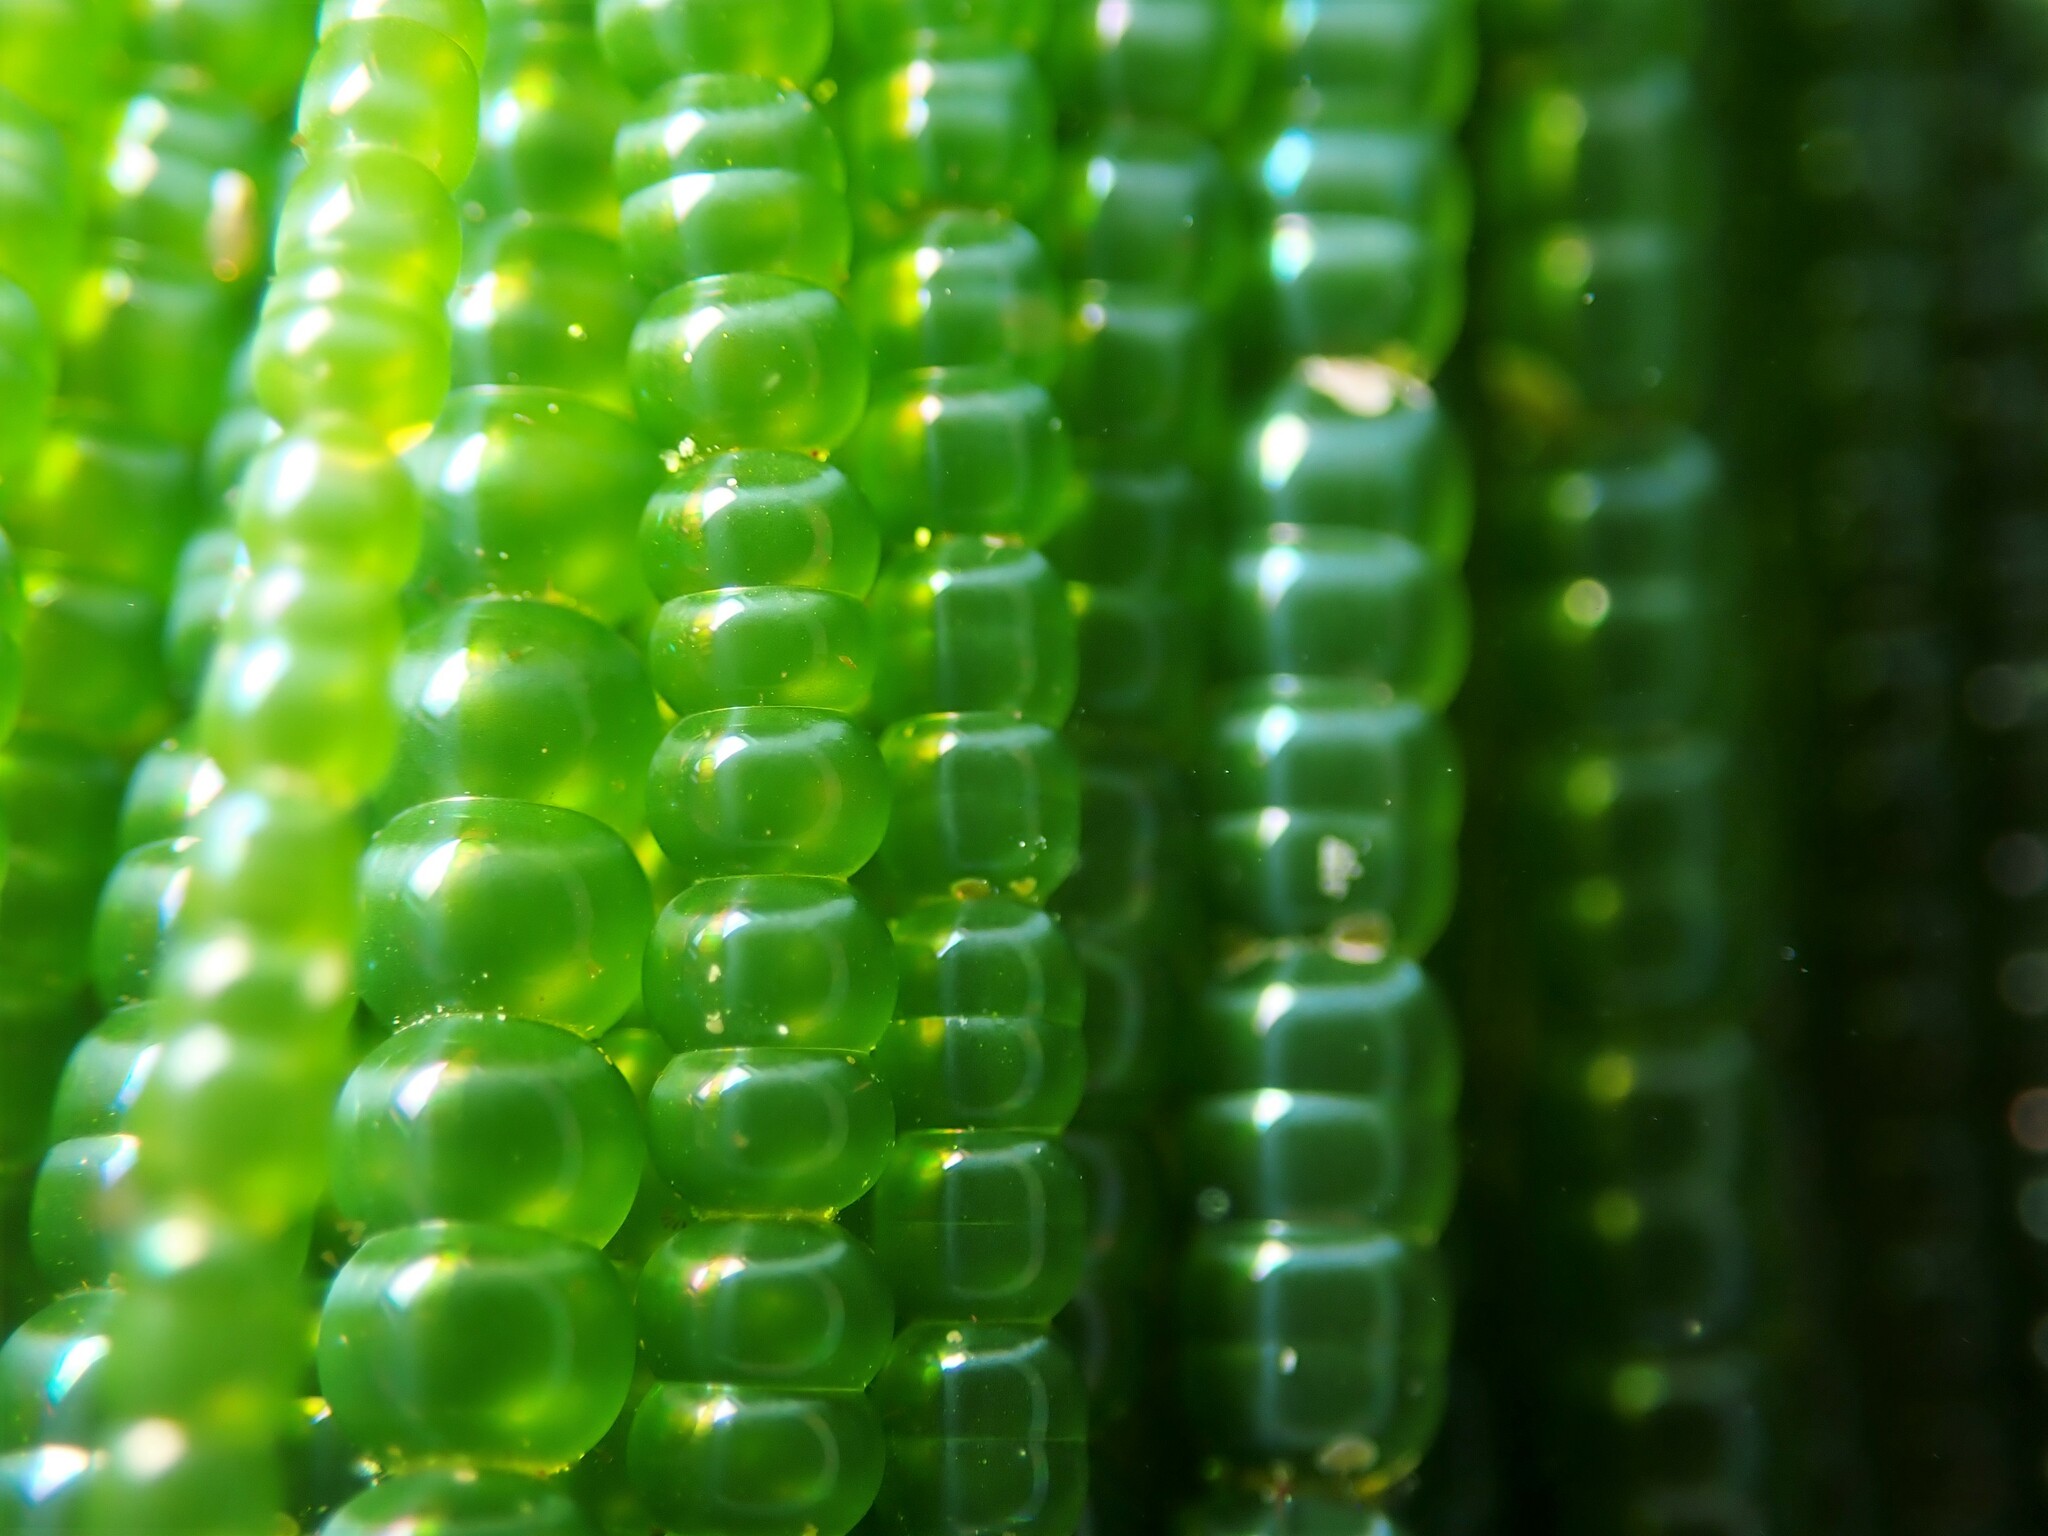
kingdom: Plantae
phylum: Chlorophyta
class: Ulvophyceae
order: Cladophorales
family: Cladophoraceae
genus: Chaetomorpha
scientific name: Chaetomorpha coliformis
